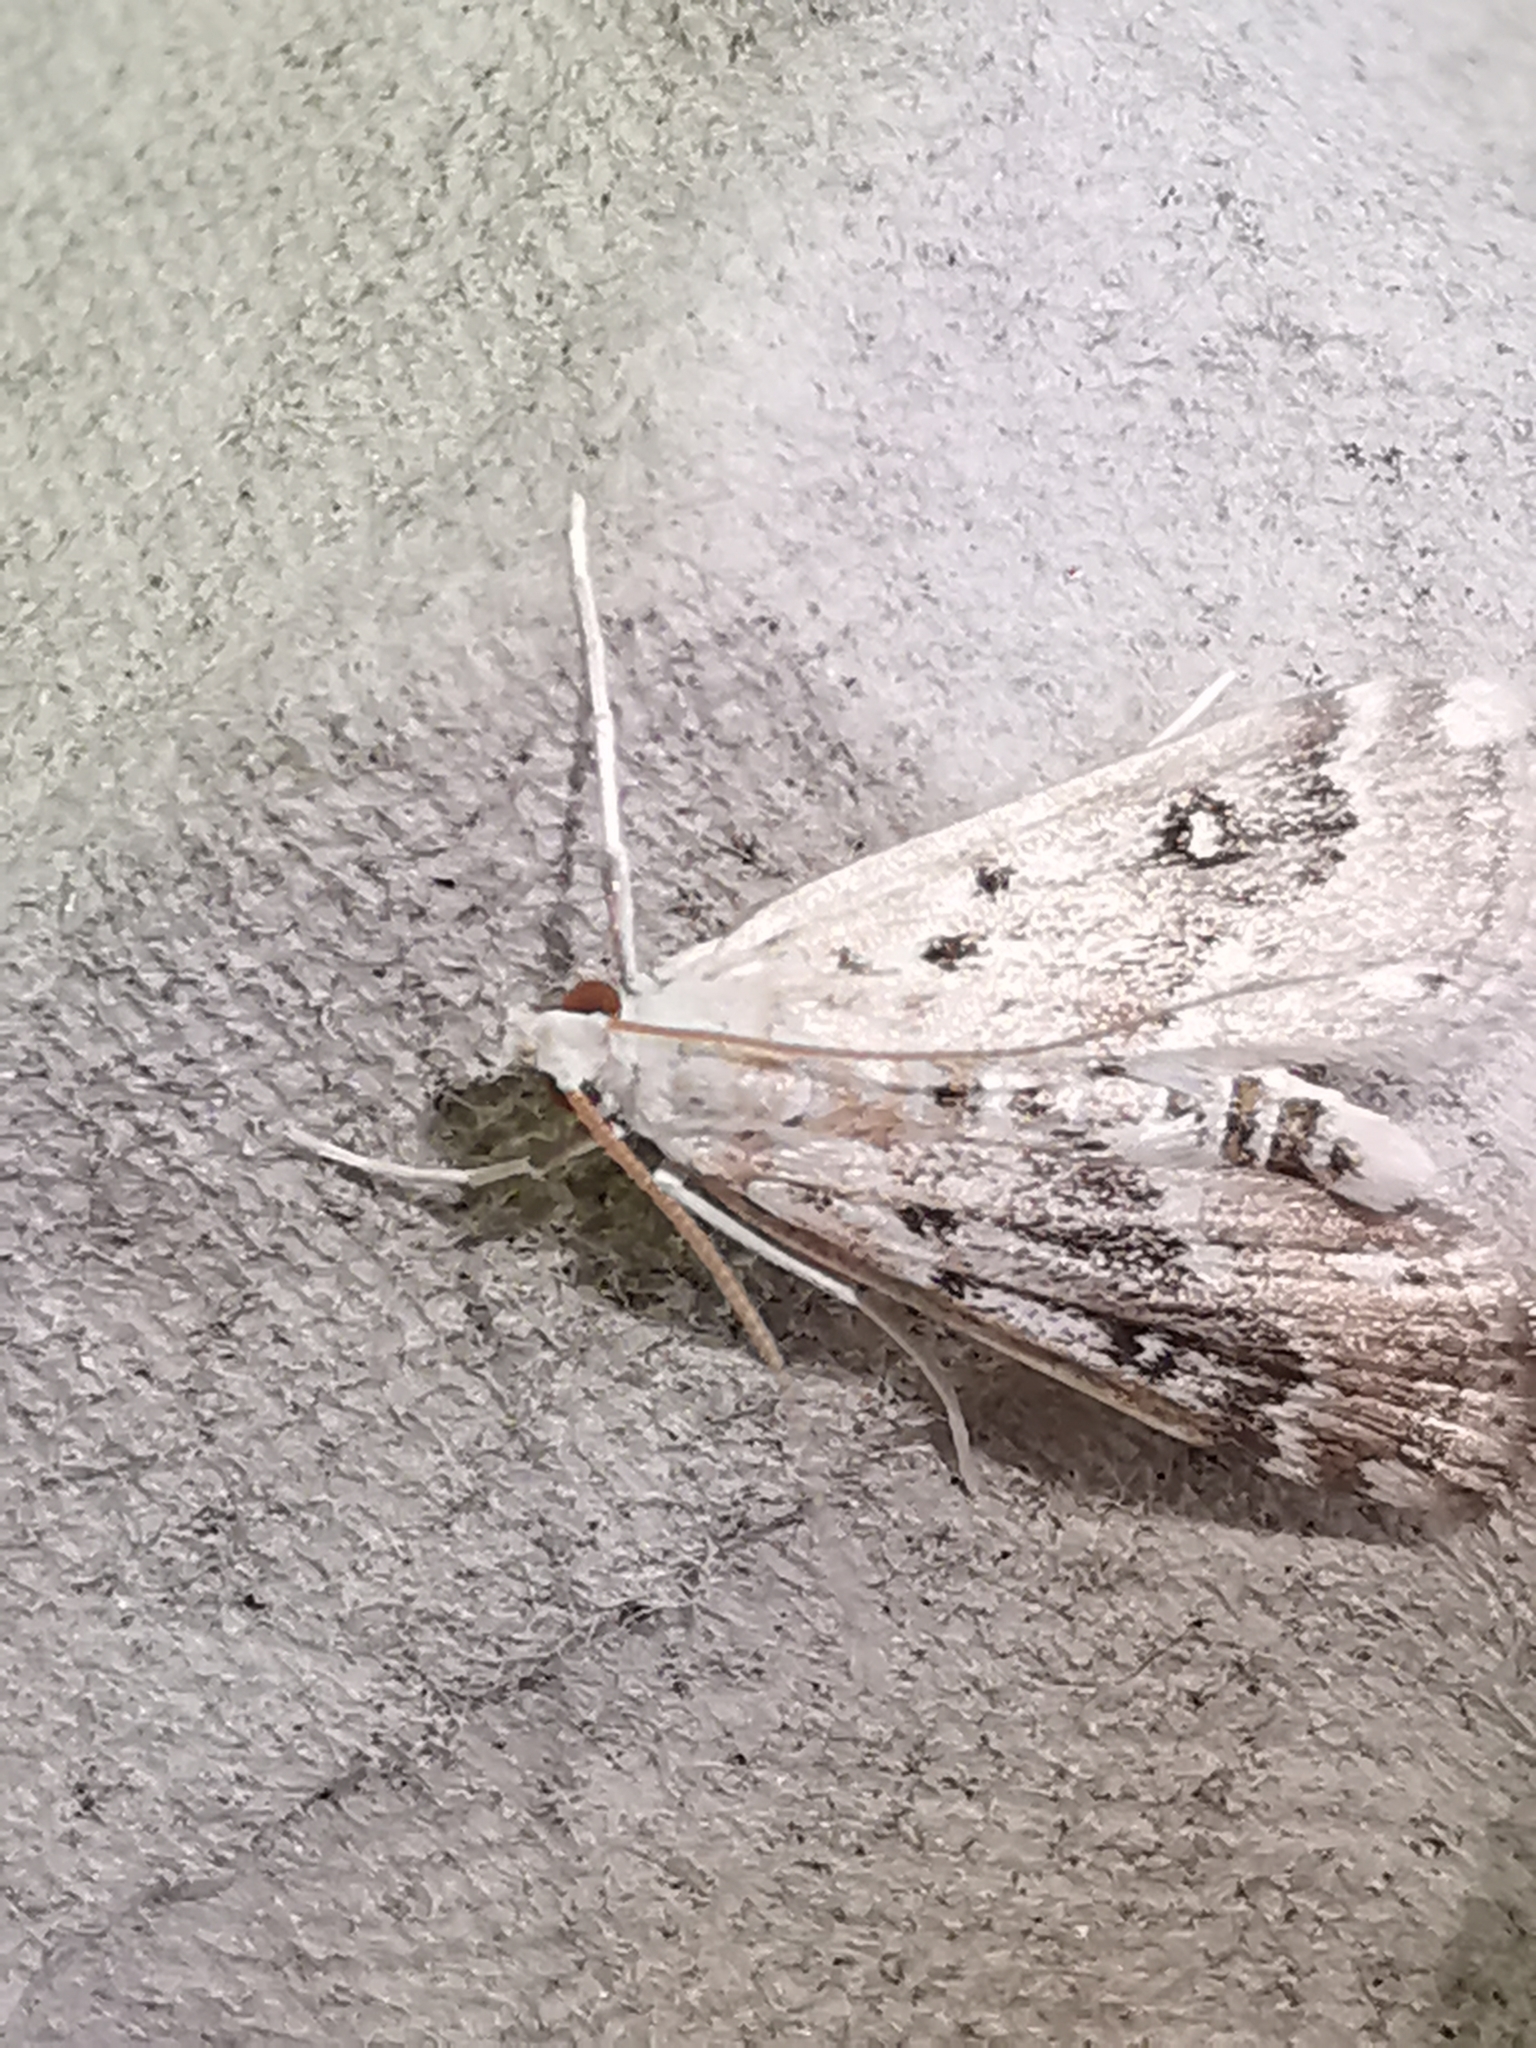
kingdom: Animalia
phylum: Arthropoda
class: Insecta
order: Lepidoptera
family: Crambidae
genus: Parapoynx
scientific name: Parapoynx stratiotata
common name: Ringed china-mark
